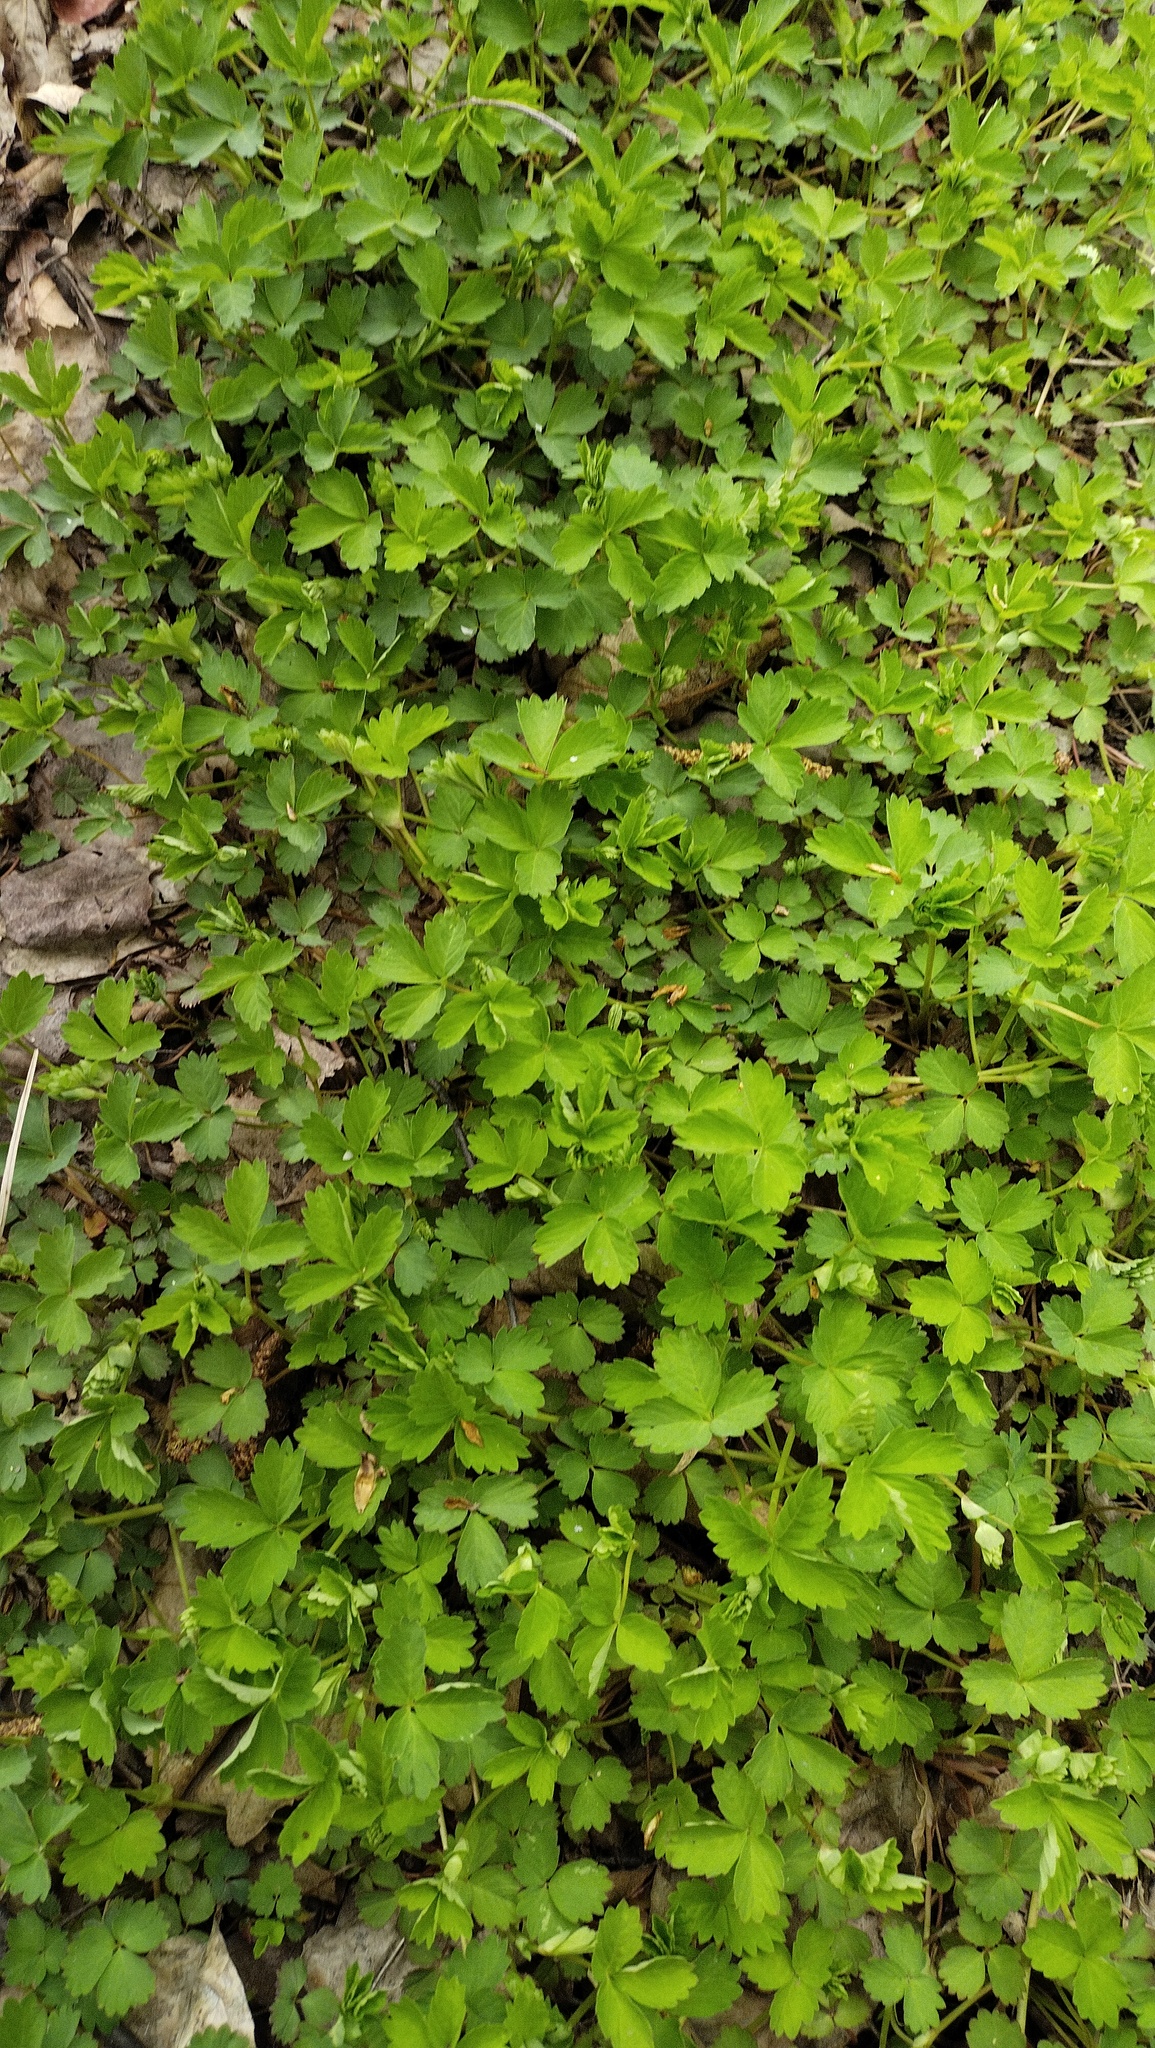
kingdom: Plantae
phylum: Tracheophyta
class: Magnoliopsida
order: Rosales
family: Rosaceae
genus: Geum
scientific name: Geum ternatum
